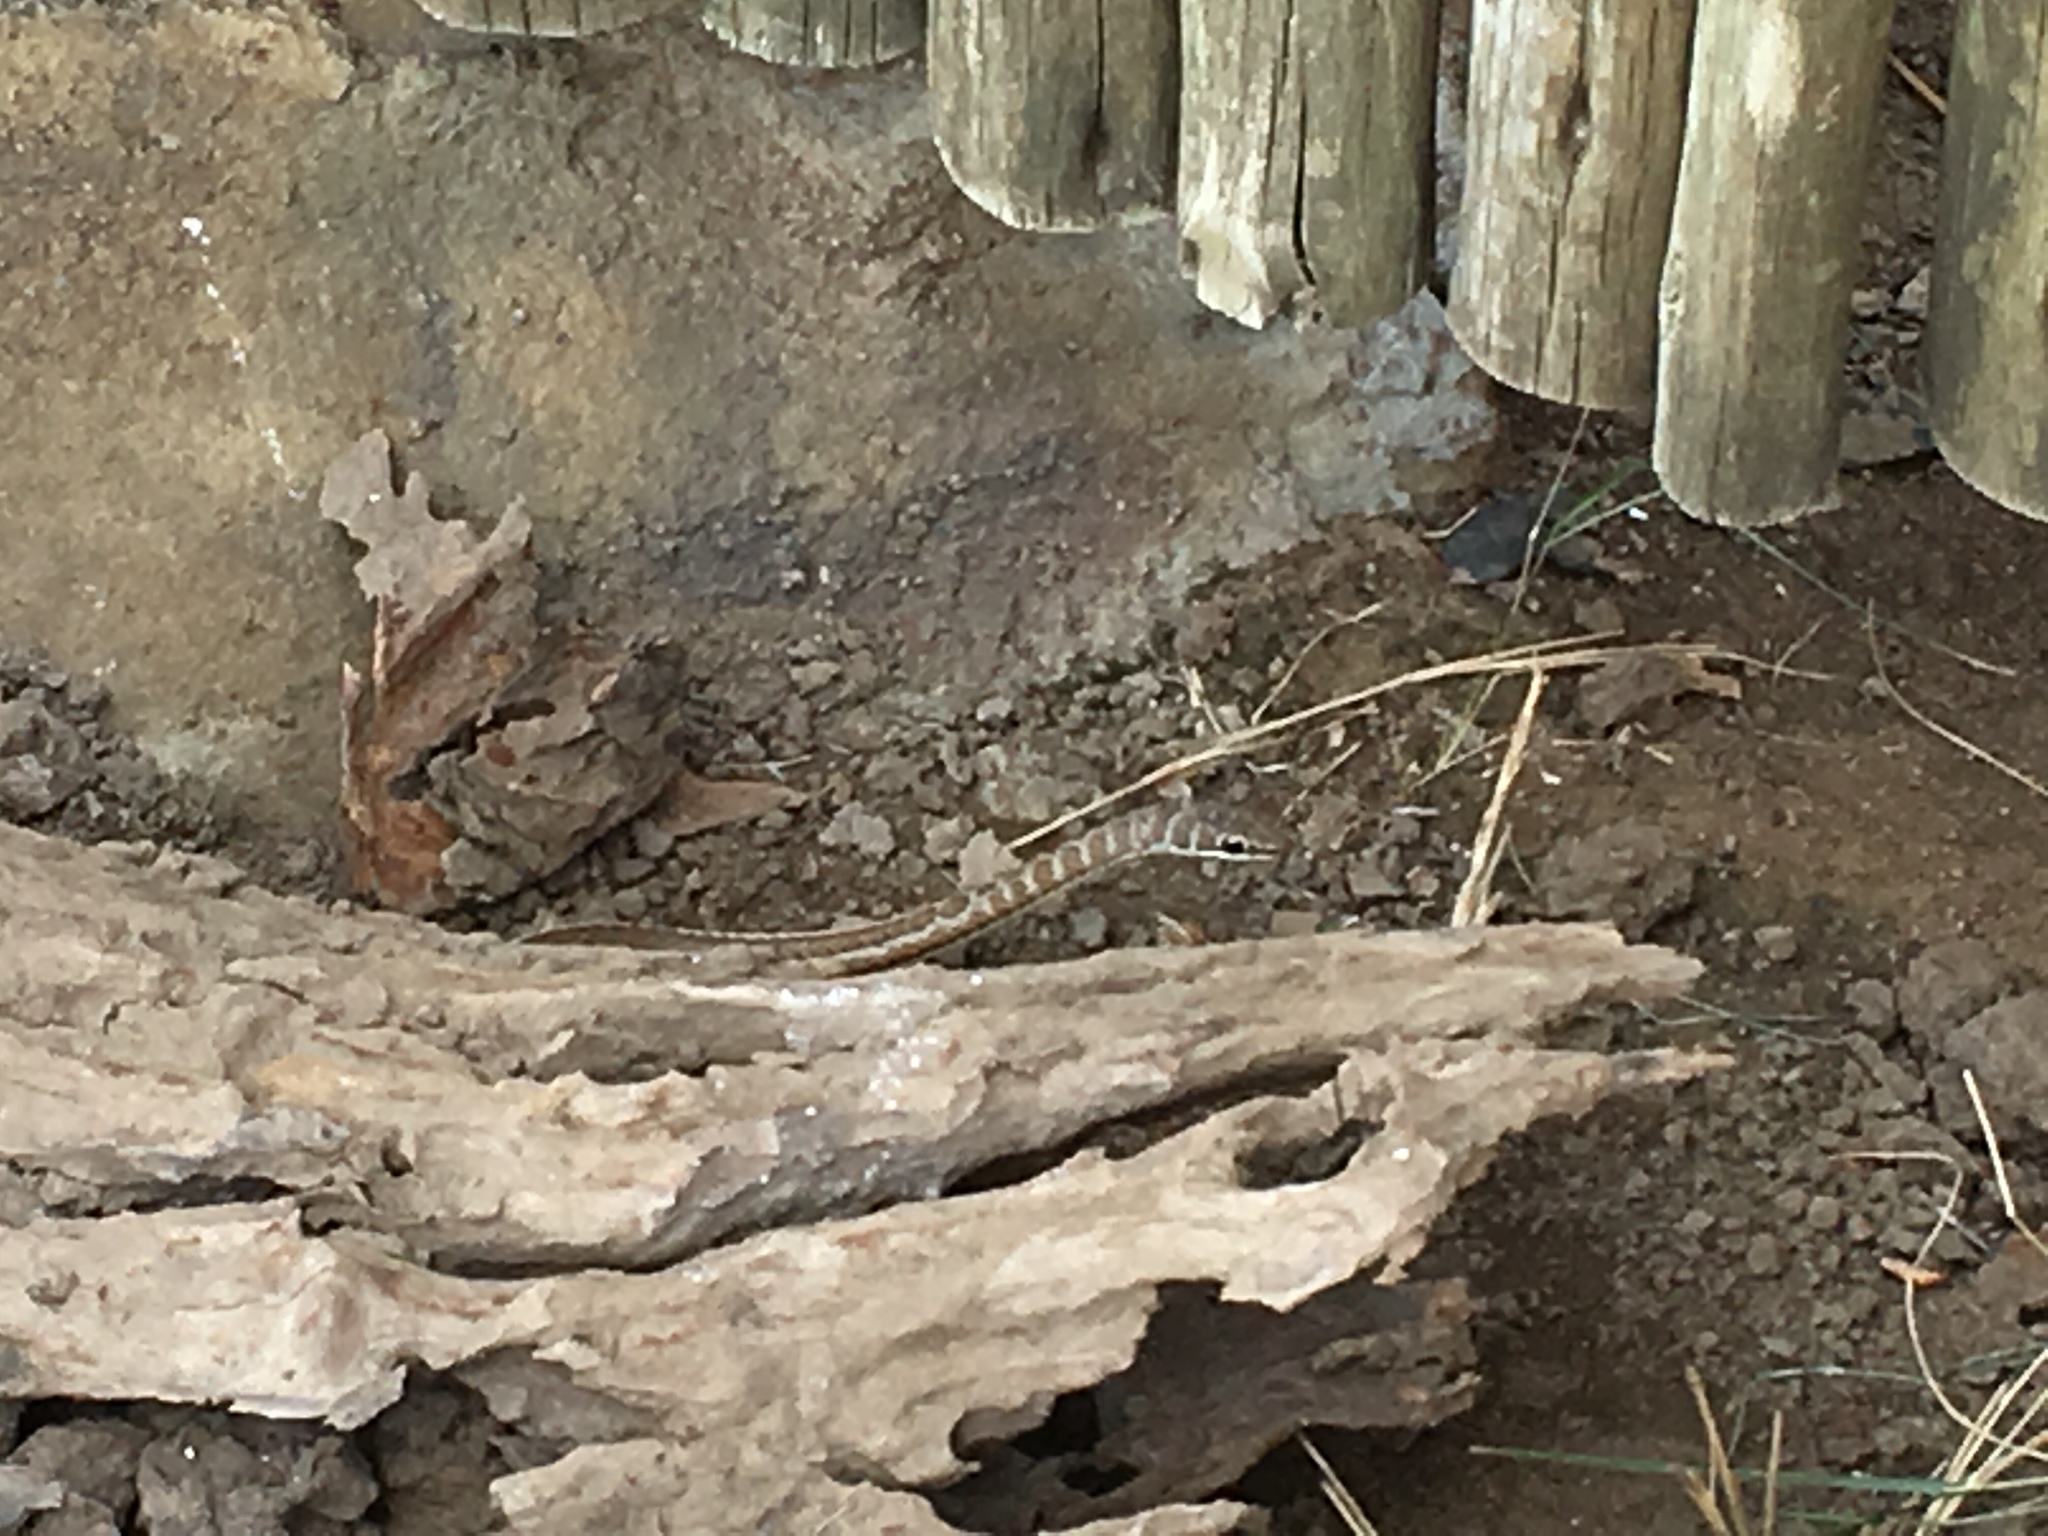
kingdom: Animalia
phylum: Chordata
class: Squamata
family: Psammophiidae
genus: Psammophis
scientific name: Psammophis subtaeniatus
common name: Stripe-bellied sand snake
